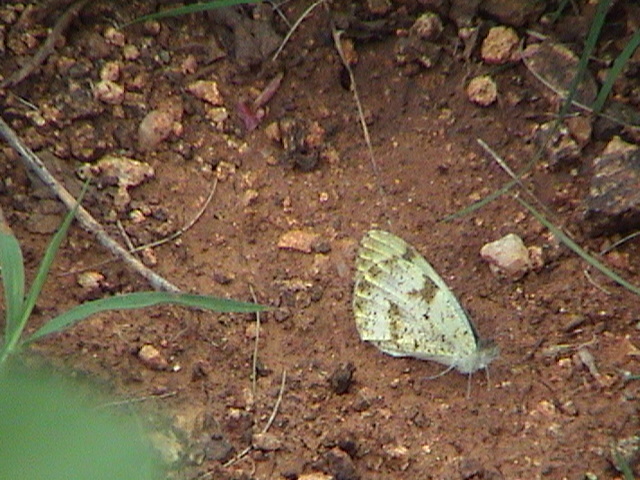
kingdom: Animalia
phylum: Arthropoda
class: Insecta
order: Lepidoptera
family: Pieridae
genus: Colotis
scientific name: Colotis aurora
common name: Plain orange-tip
